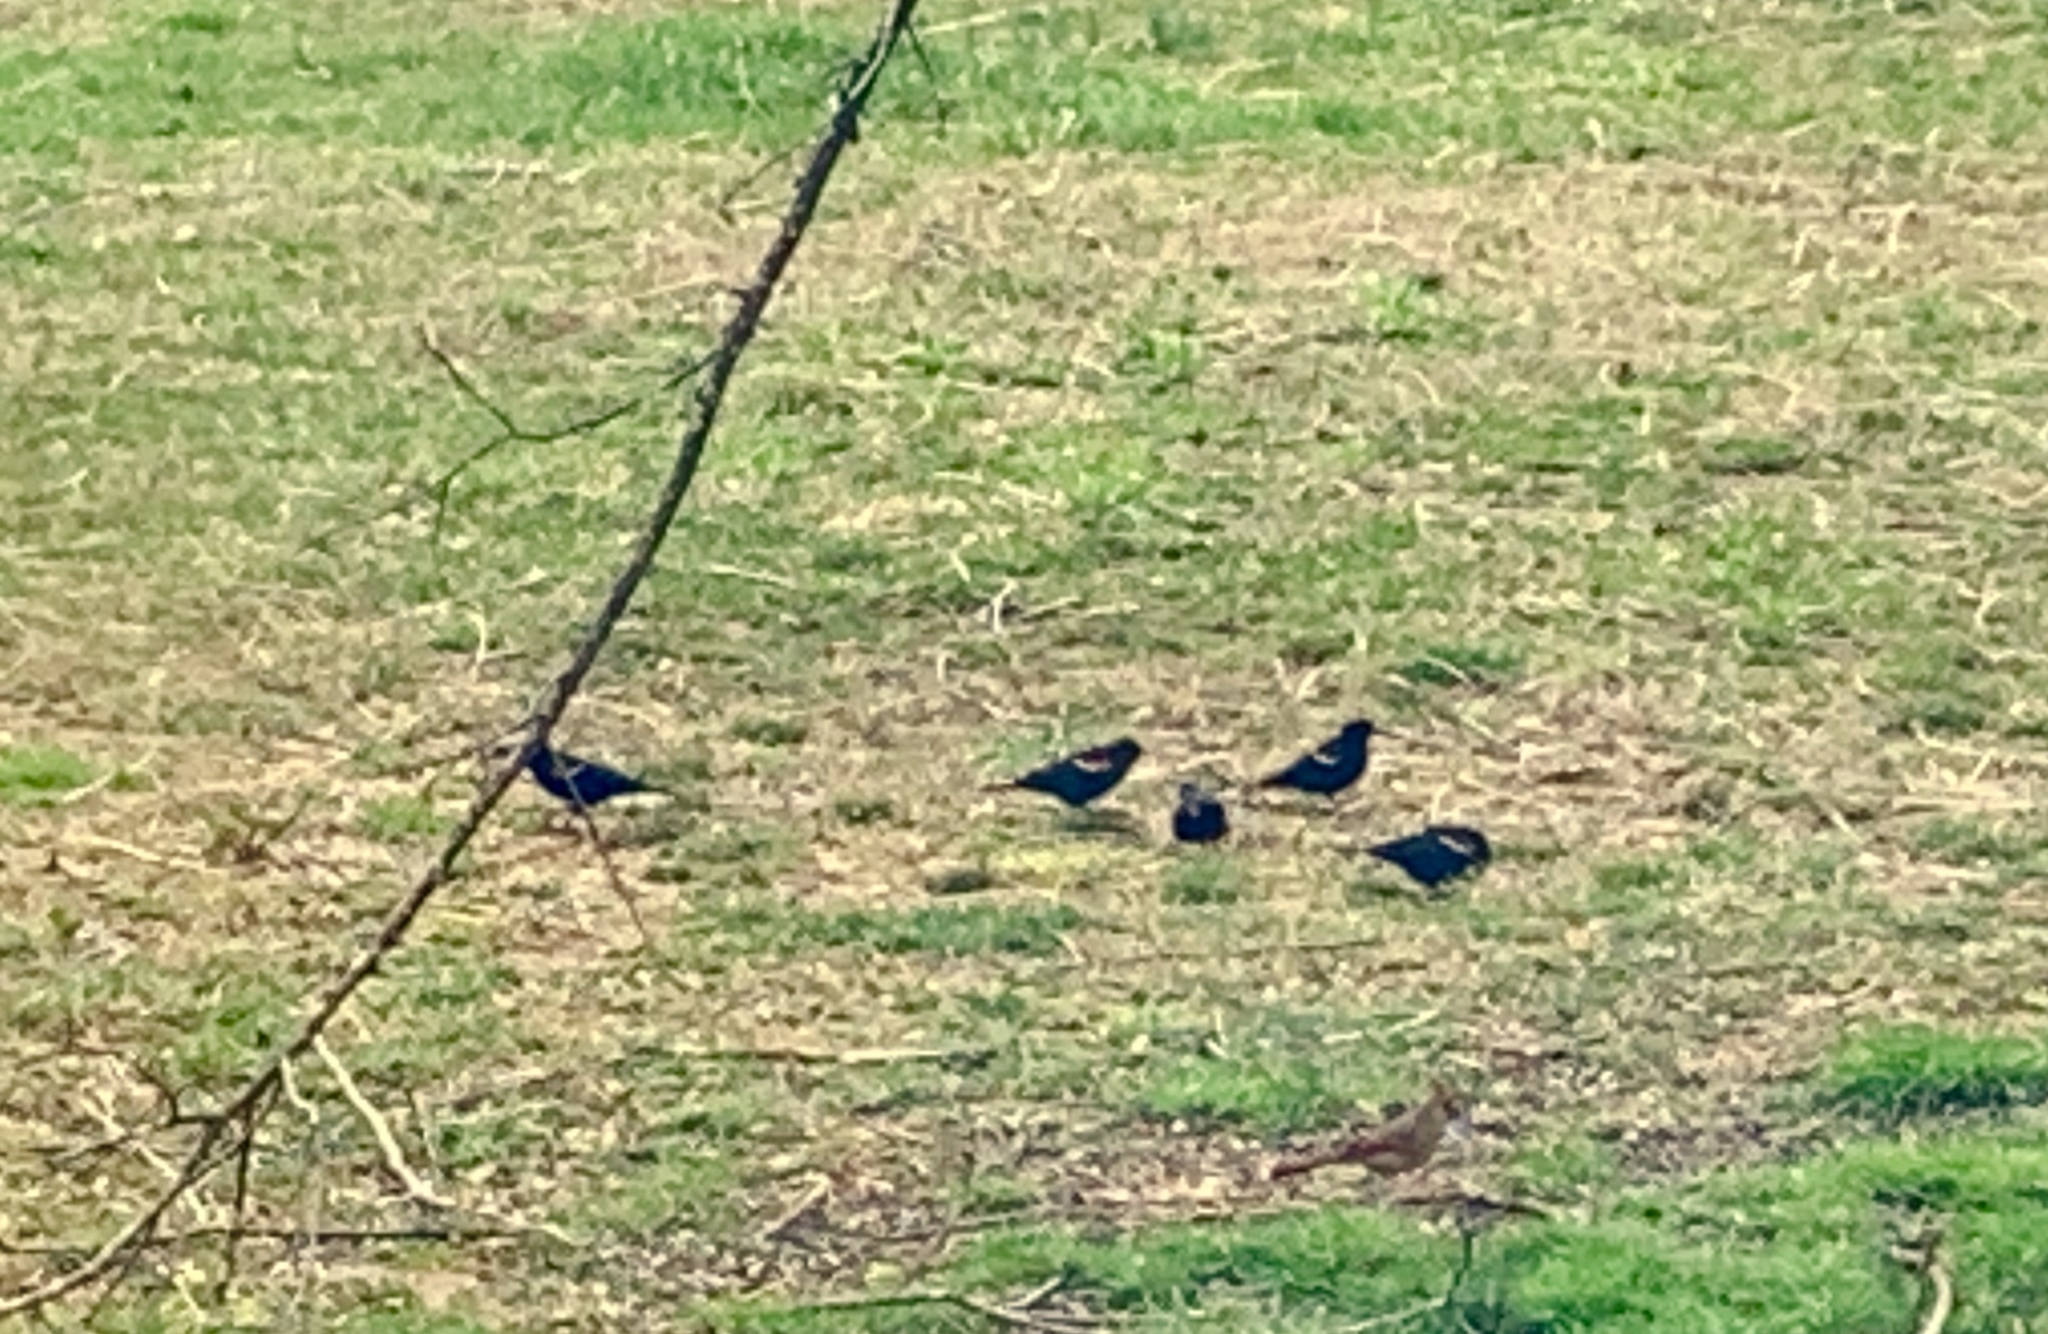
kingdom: Animalia
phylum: Chordata
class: Aves
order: Passeriformes
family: Icteridae
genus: Agelaius
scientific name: Agelaius phoeniceus
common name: Red-winged blackbird
